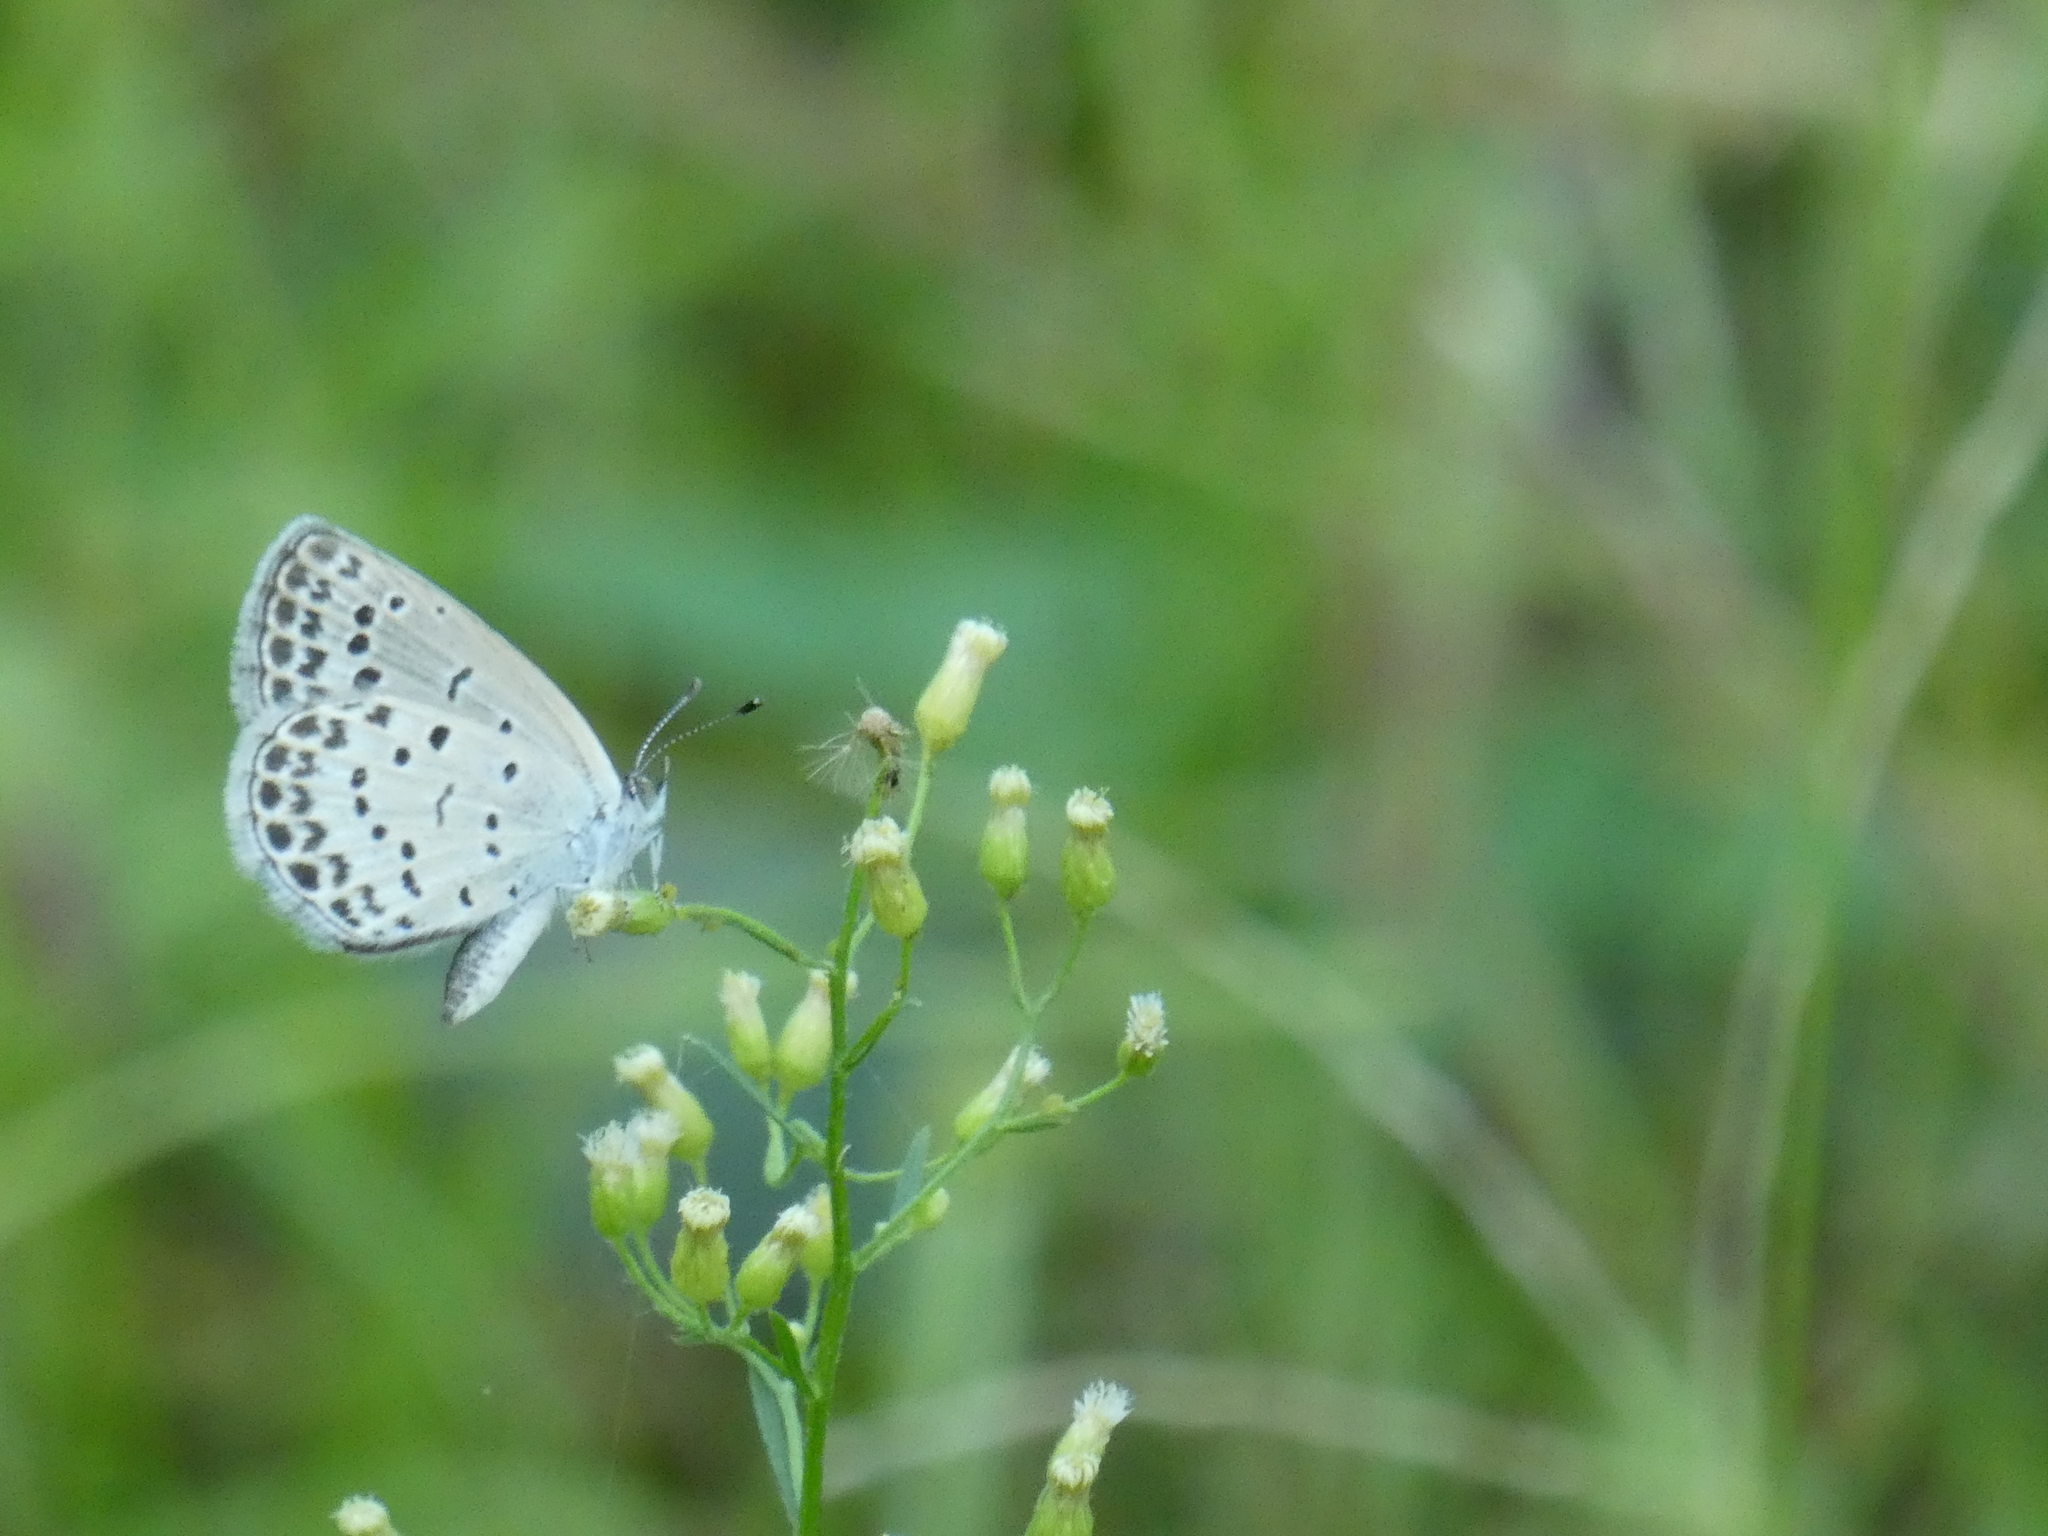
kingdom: Animalia
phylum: Arthropoda
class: Insecta
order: Lepidoptera
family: Lycaenidae
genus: Pseudozizeeria
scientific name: Pseudozizeeria maha
